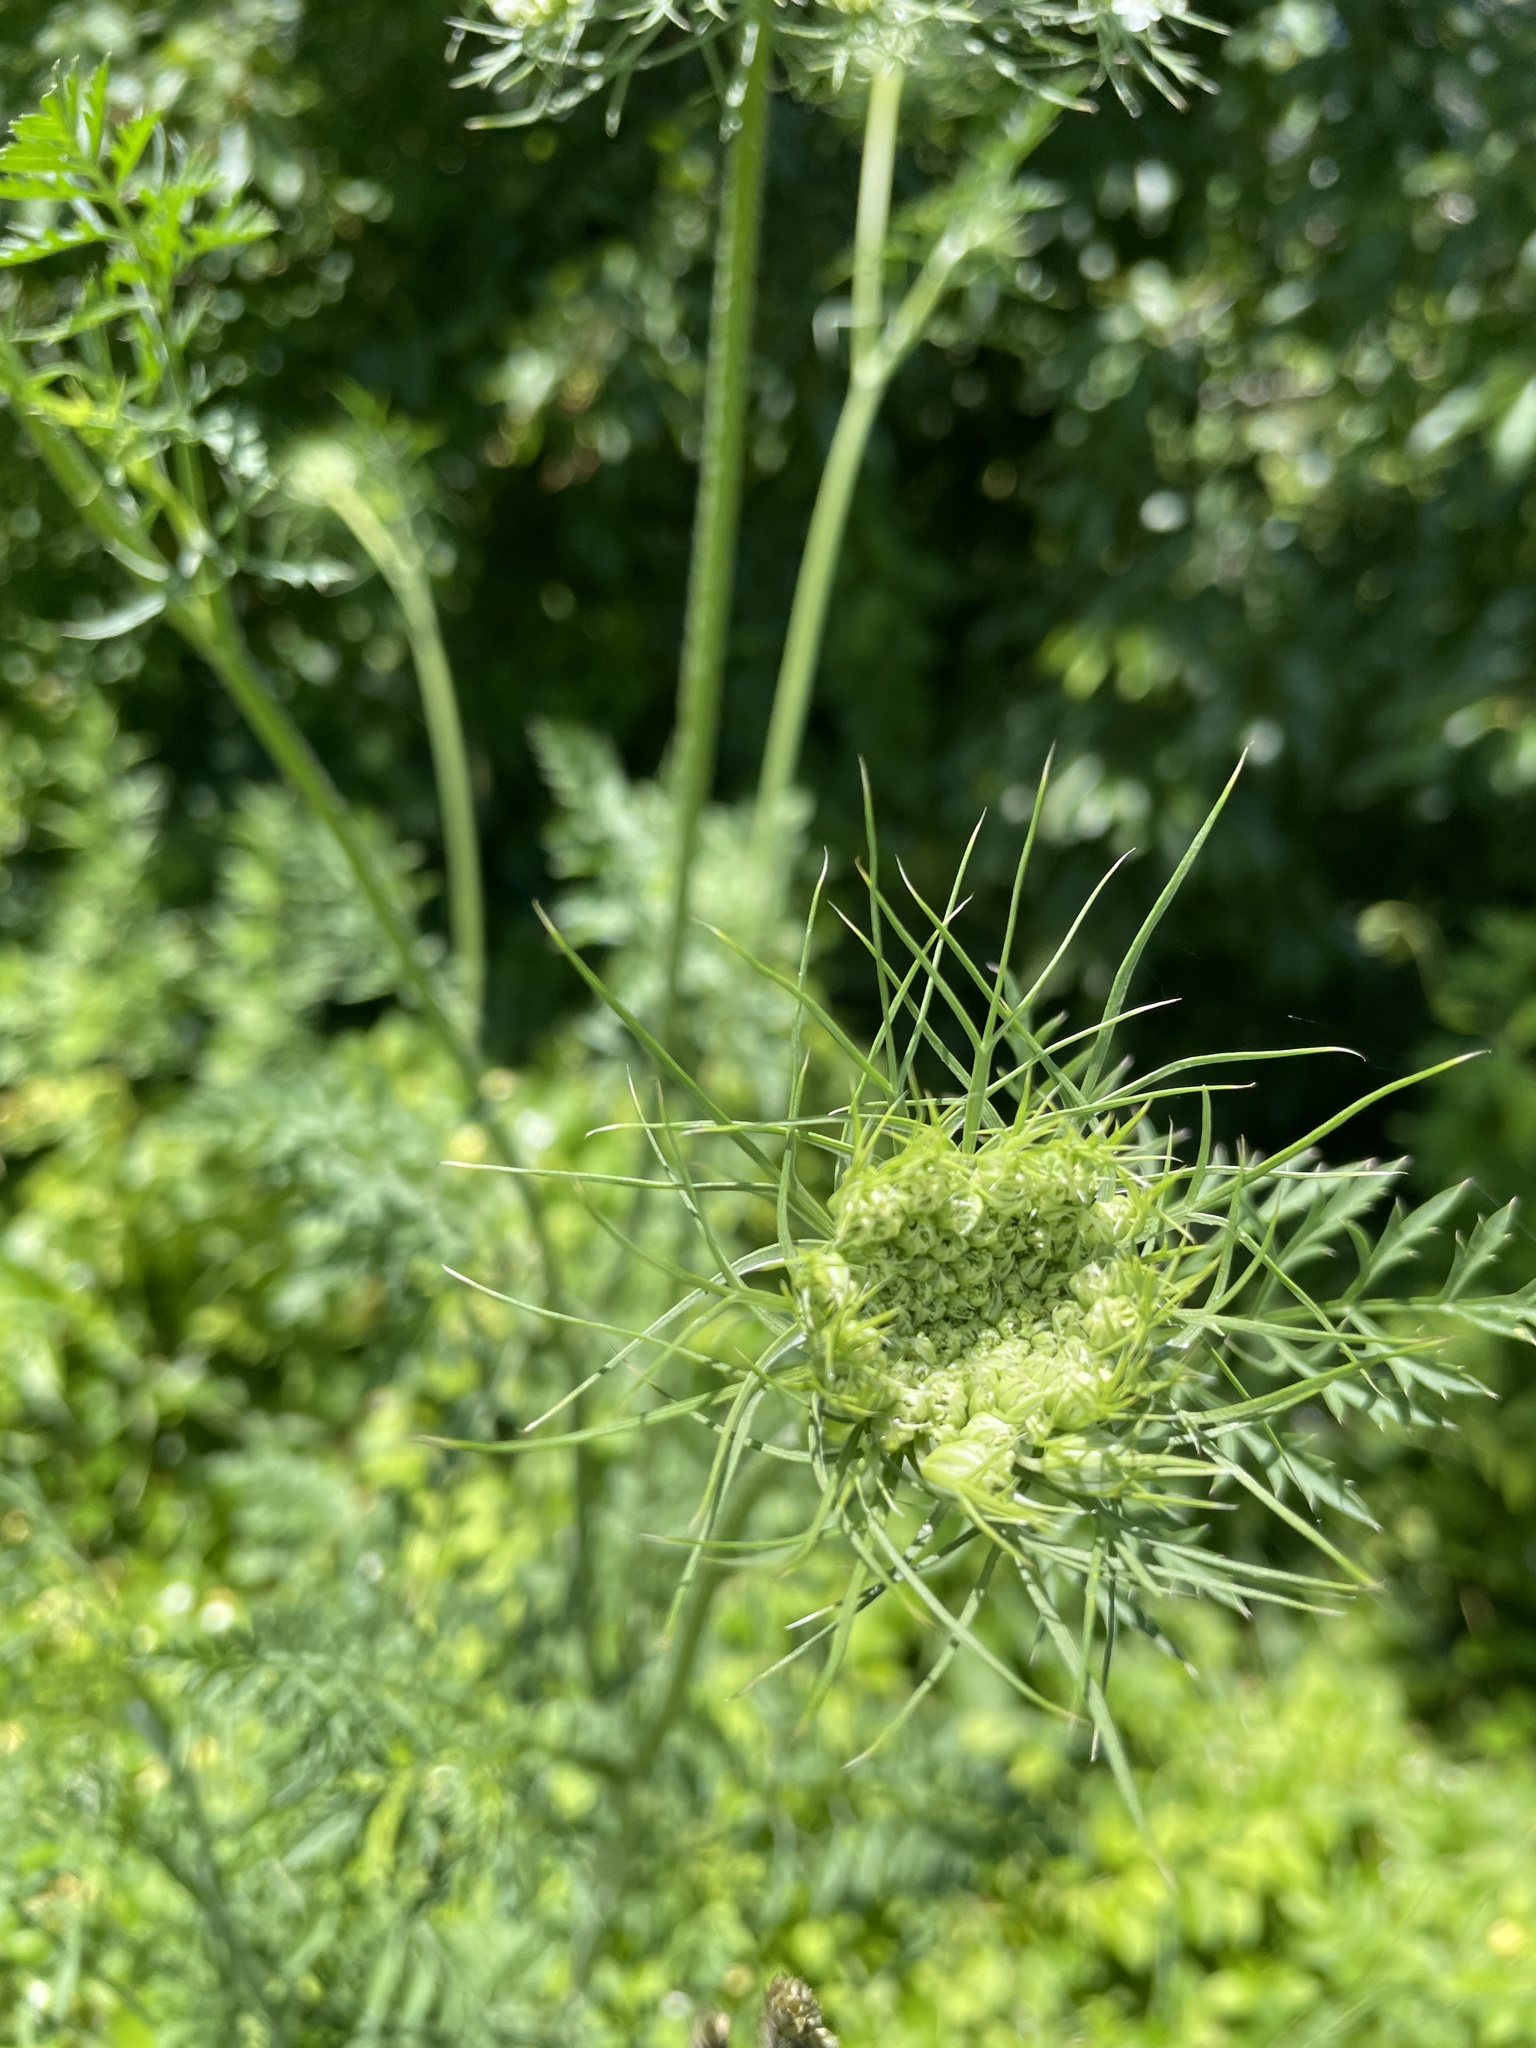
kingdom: Plantae
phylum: Tracheophyta
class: Magnoliopsida
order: Apiales
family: Apiaceae
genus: Daucus
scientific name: Daucus carota
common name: Wild carrot
